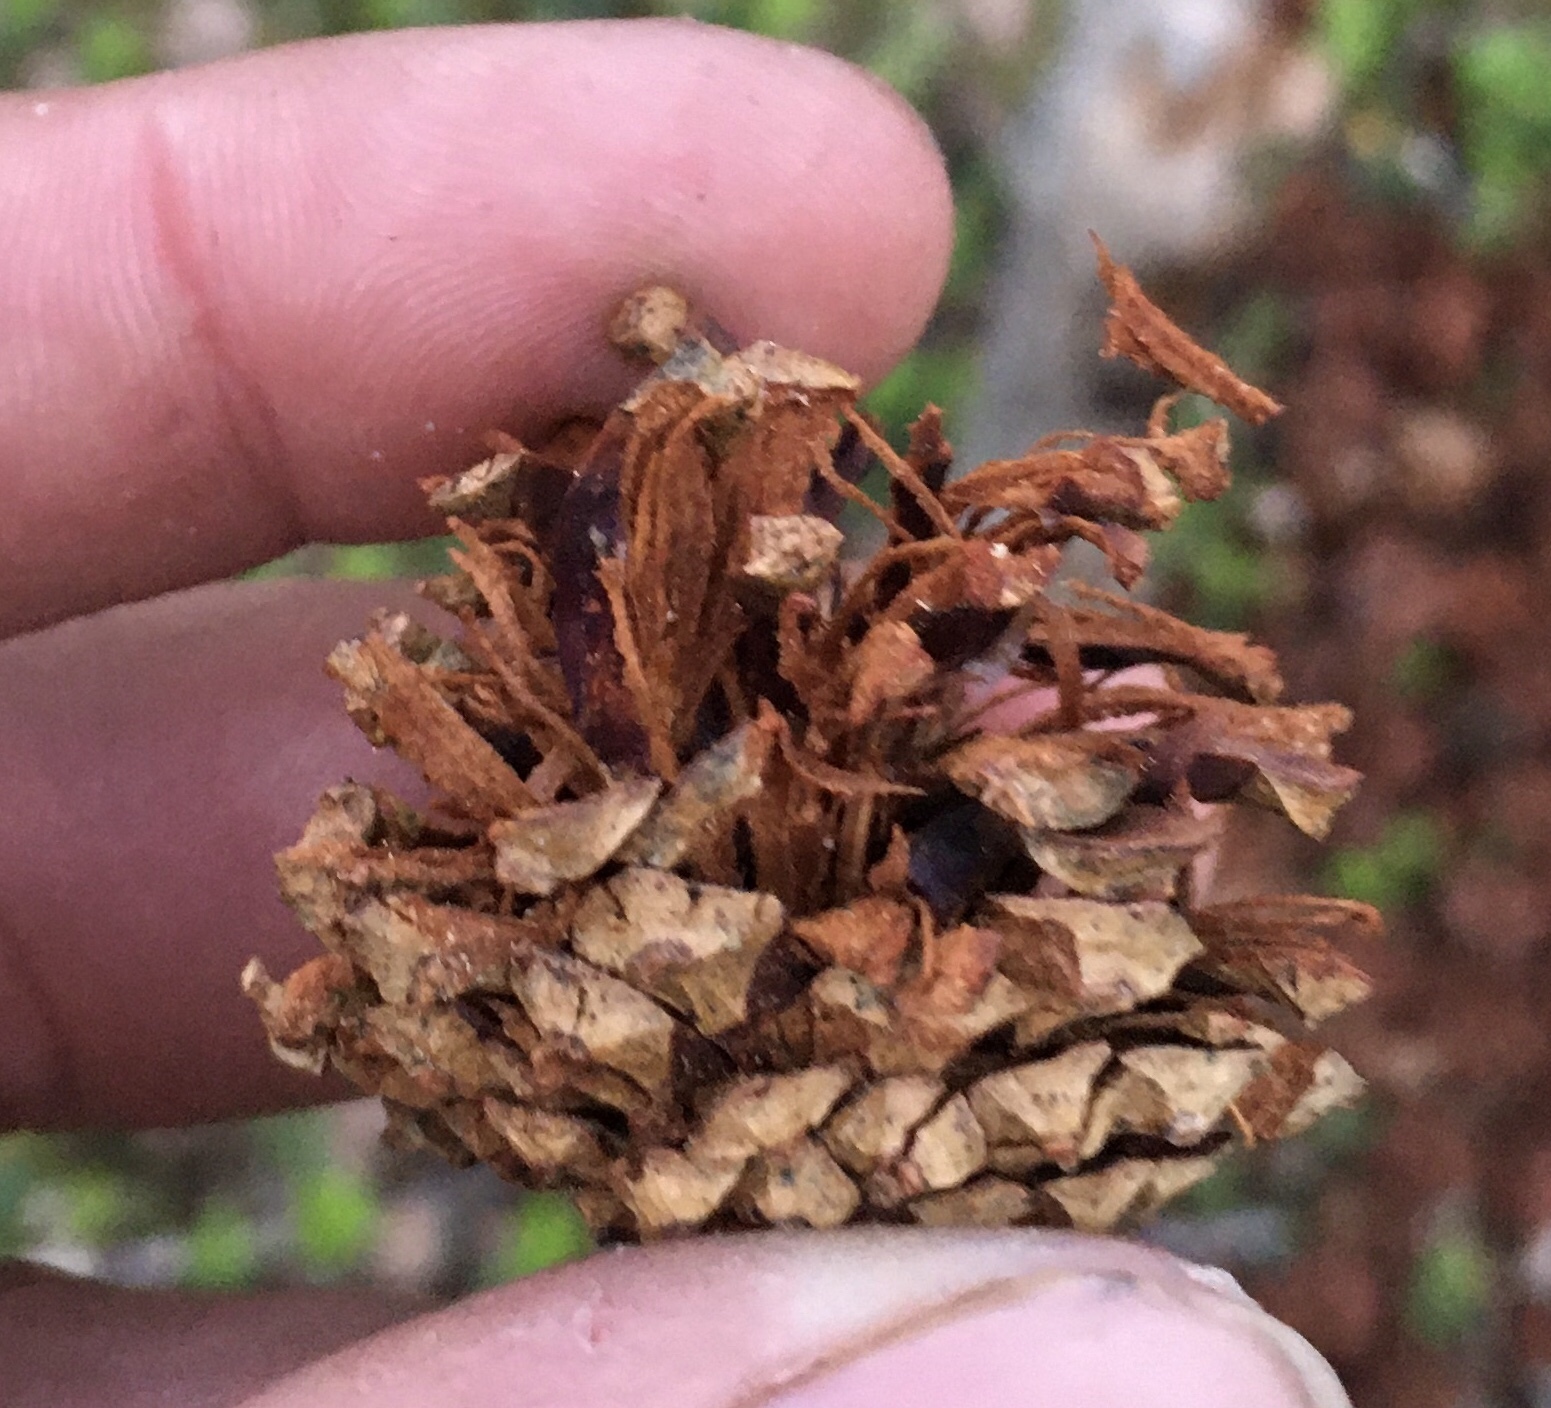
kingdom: Plantae
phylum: Tracheophyta
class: Pinopsida
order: Pinales
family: Pinaceae
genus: Pinus
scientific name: Pinus sylvestris
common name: Scots pine
